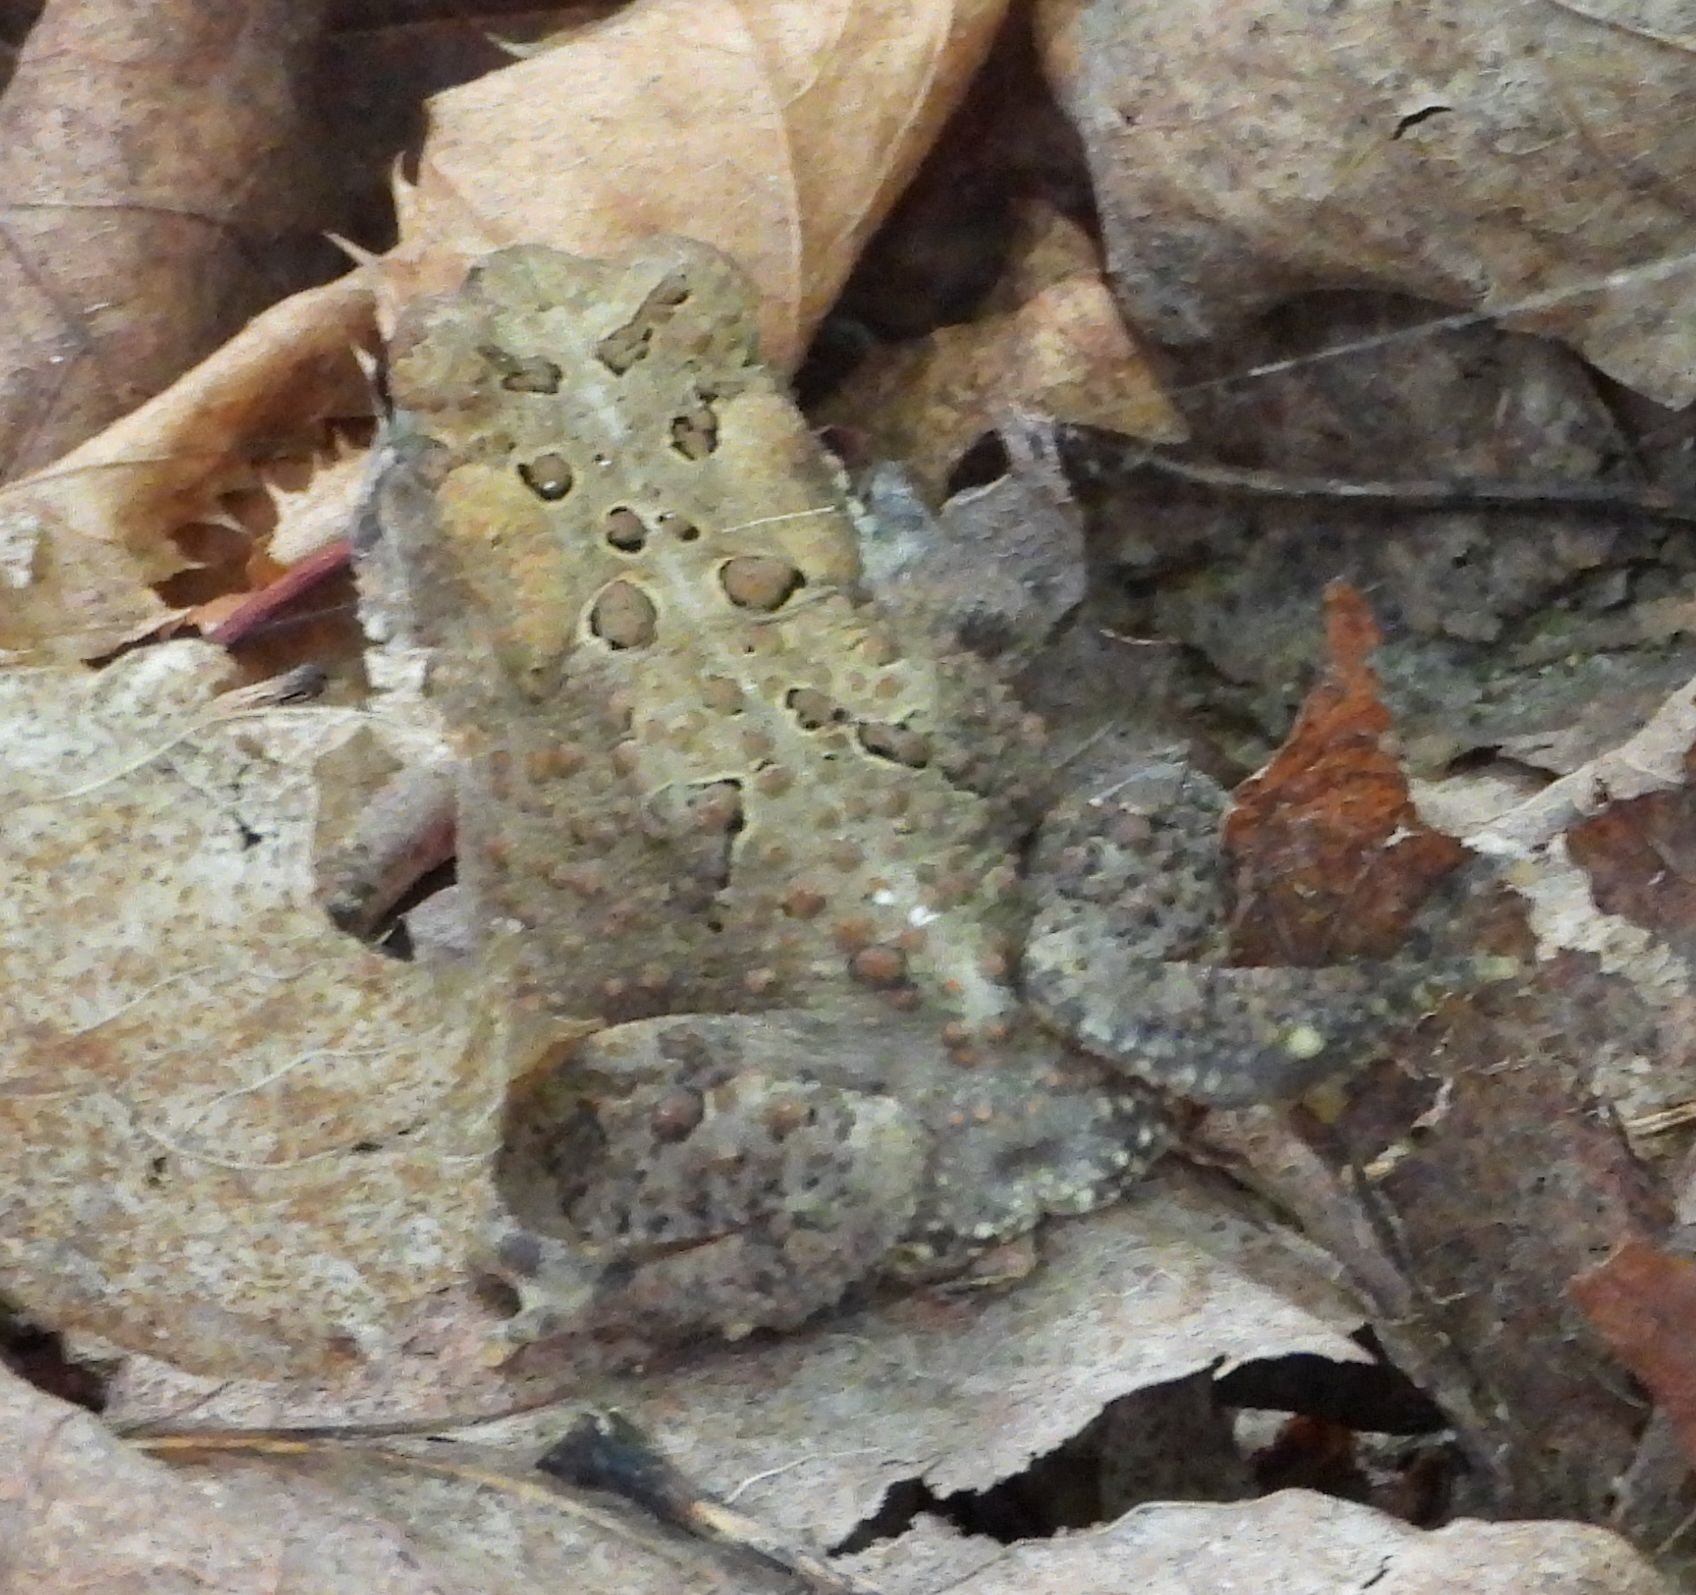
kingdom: Animalia
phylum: Chordata
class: Amphibia
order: Anura
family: Bufonidae
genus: Anaxyrus
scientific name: Anaxyrus americanus
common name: American toad
